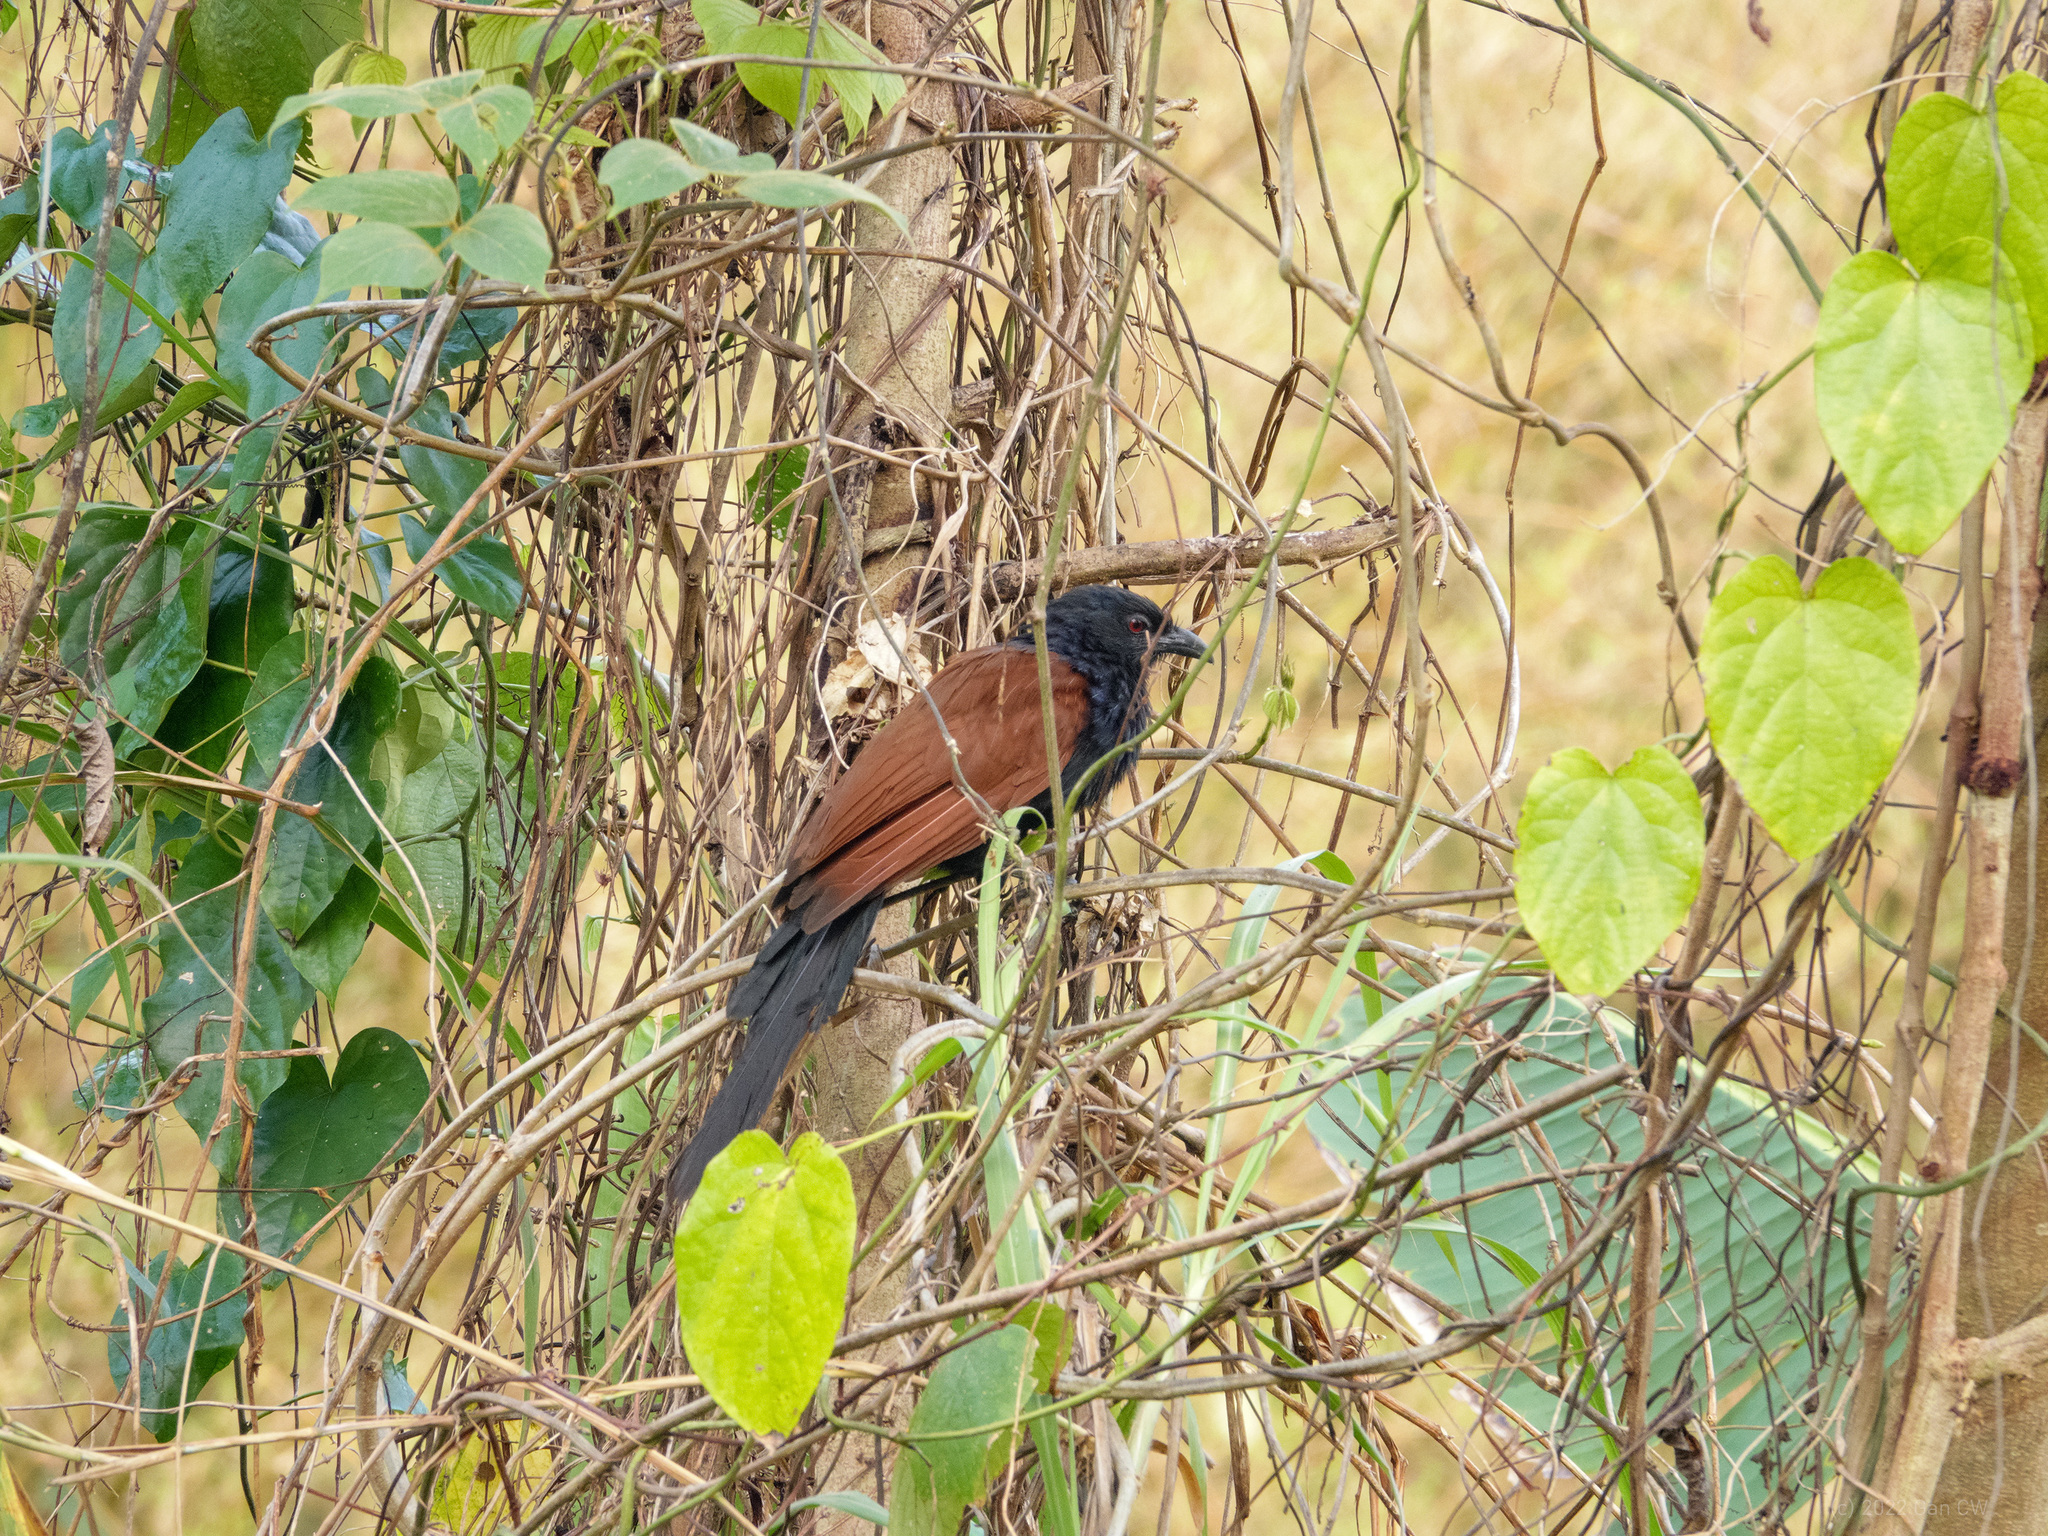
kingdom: Animalia
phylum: Chordata
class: Aves
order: Cuculiformes
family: Cuculidae
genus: Centropus
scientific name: Centropus sinensis
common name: Greater coucal
